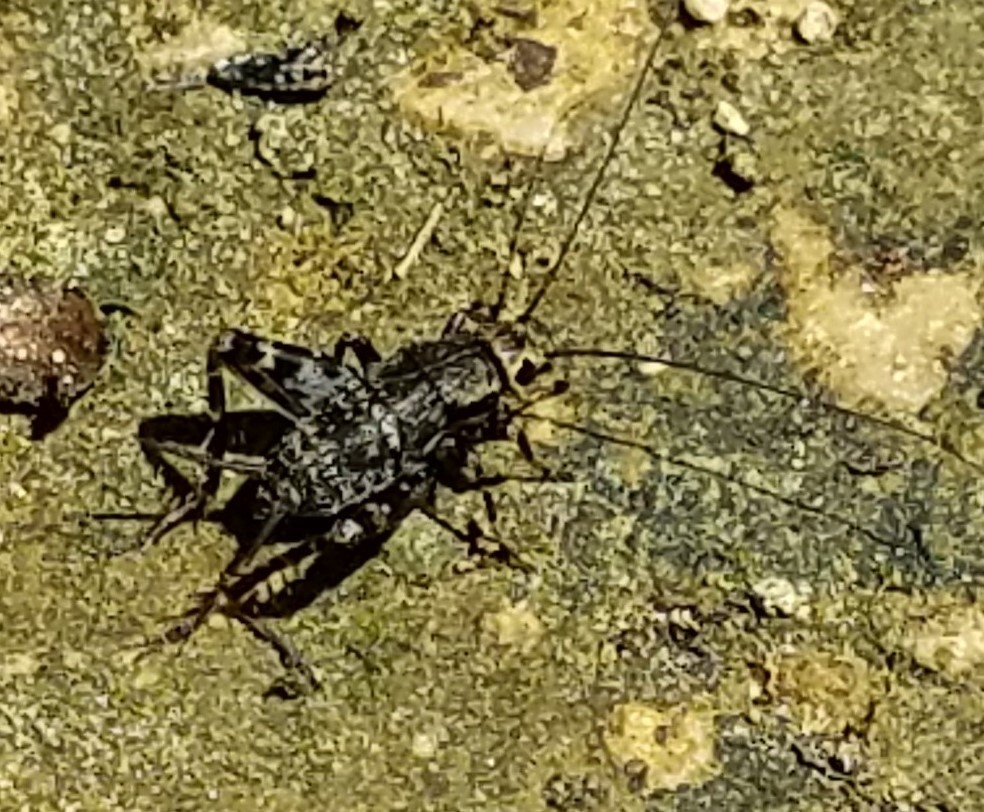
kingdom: Animalia
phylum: Arthropoda
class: Insecta
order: Orthoptera
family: Trigonidiidae
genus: Allonemobius
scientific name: Allonemobius maculatus
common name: Larger spotted ground cricket
